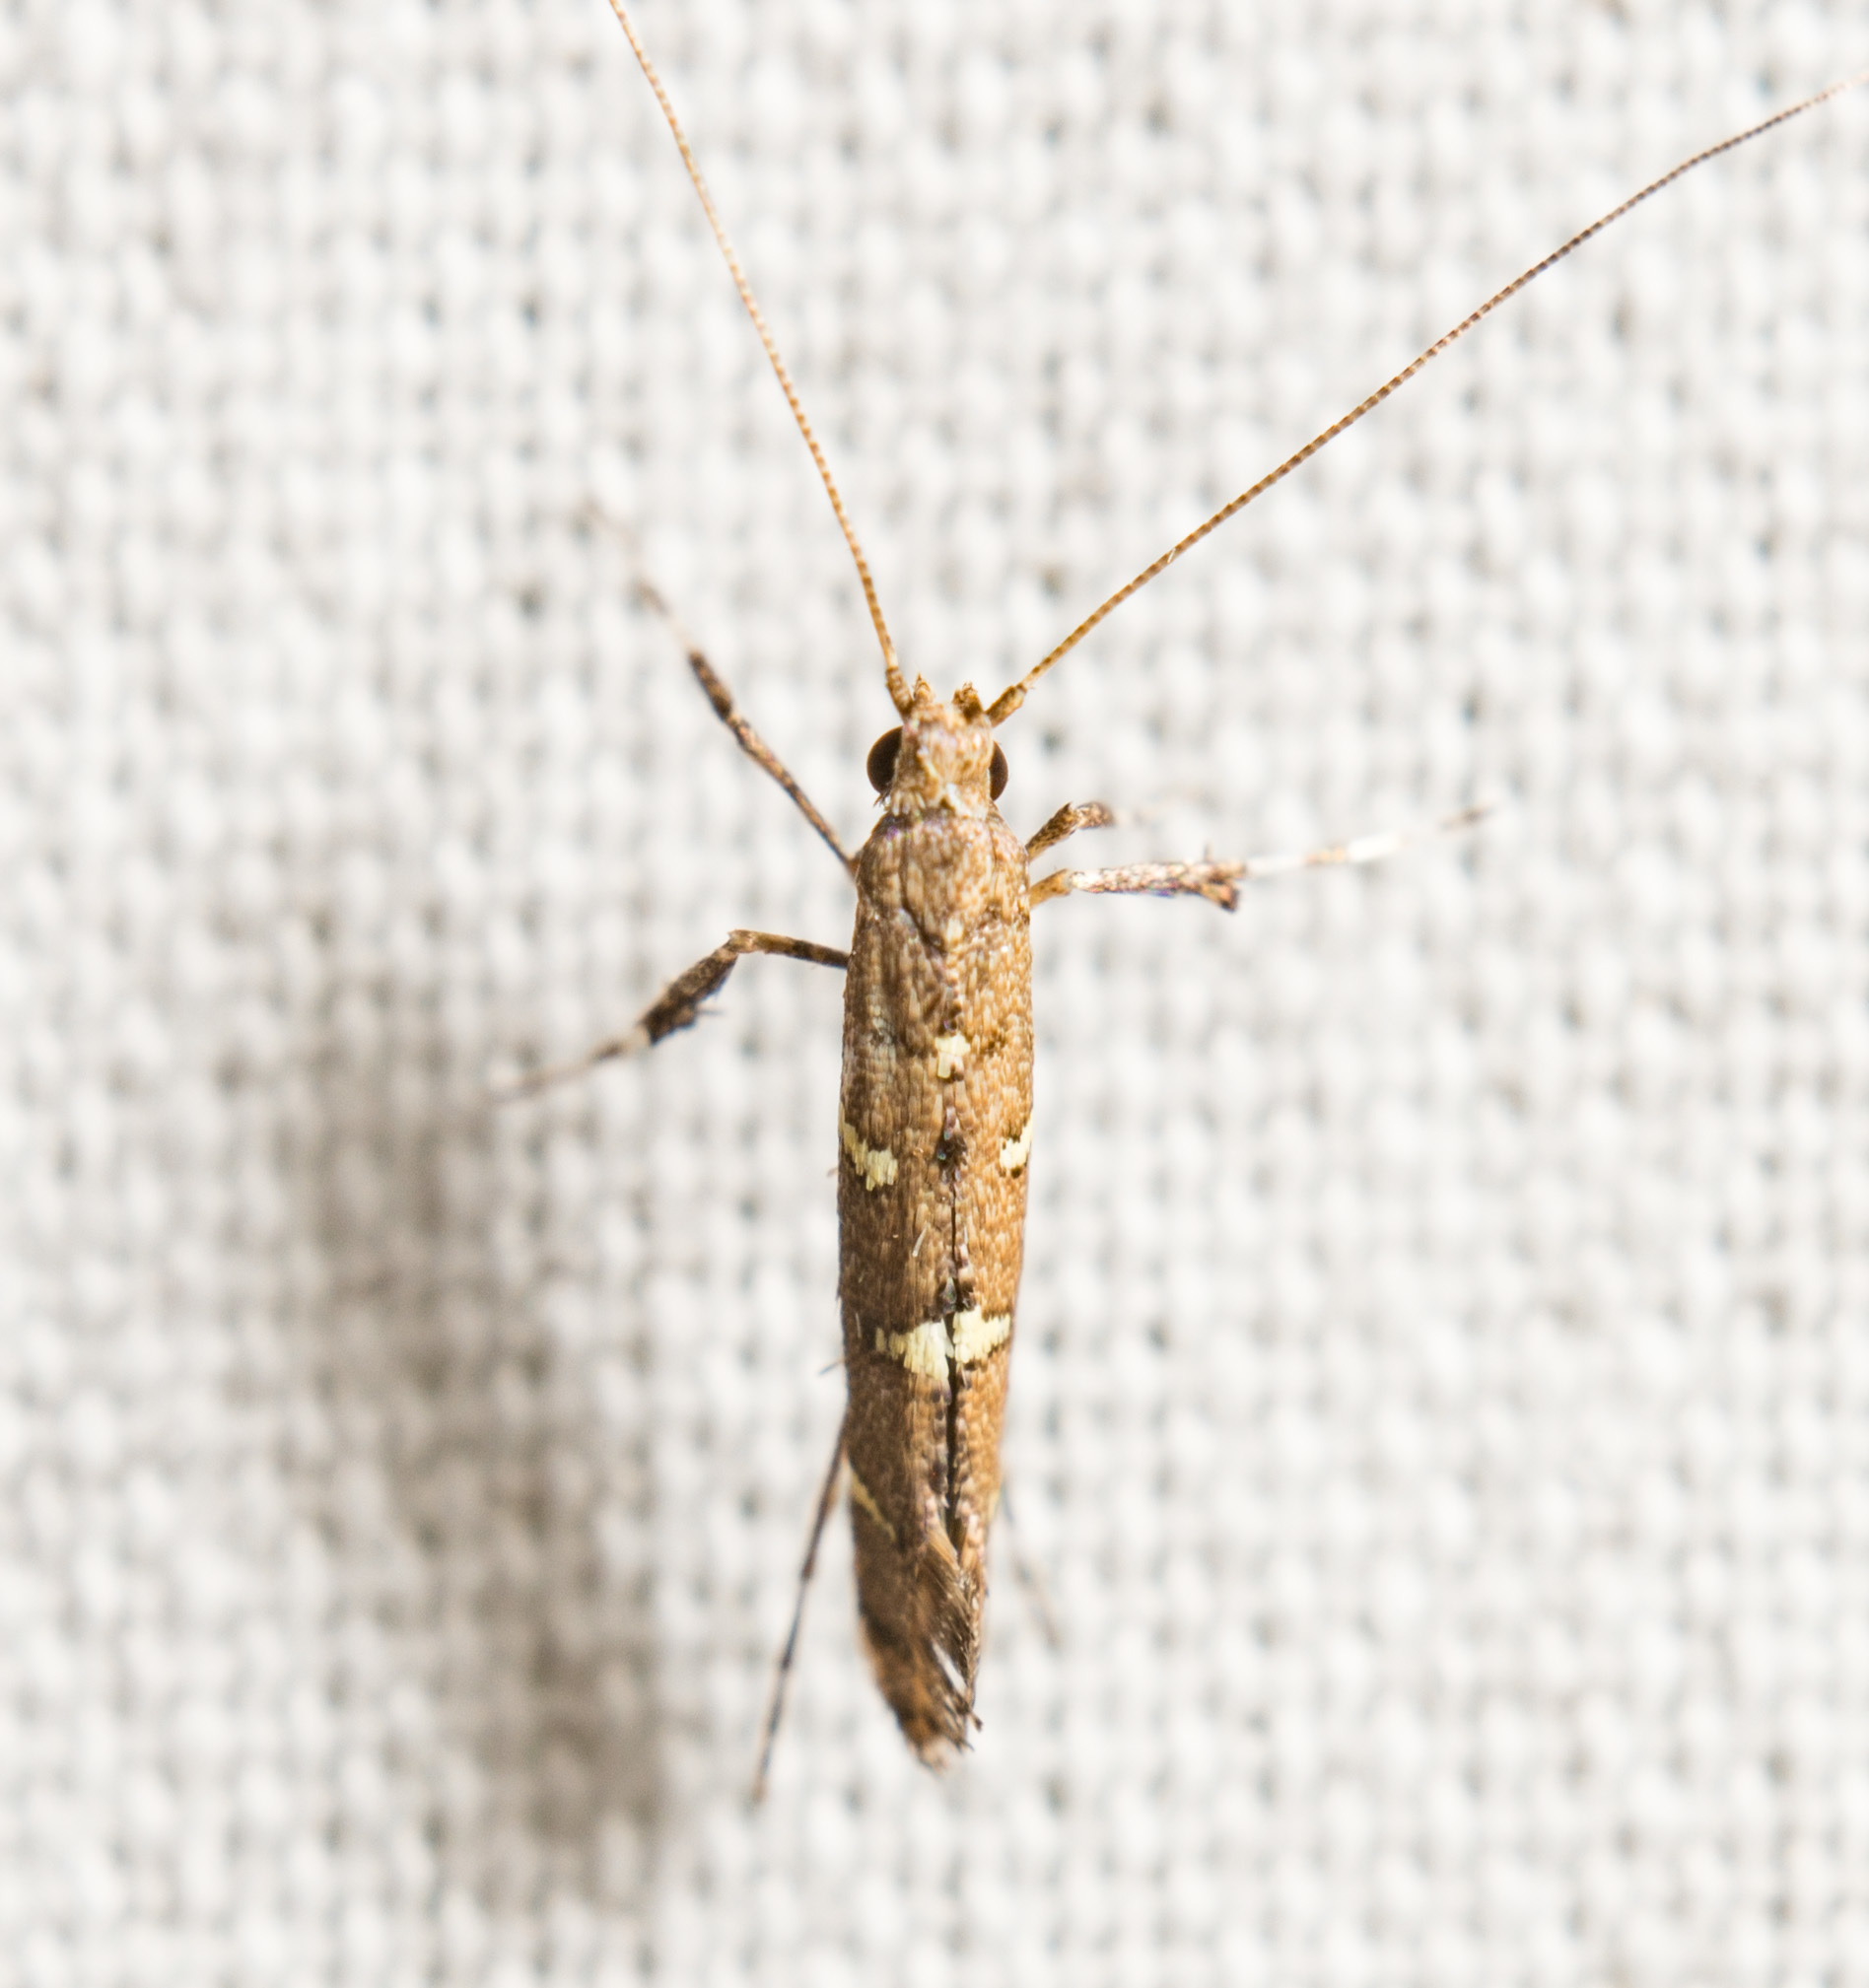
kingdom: Animalia
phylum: Arthropoda
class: Insecta
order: Lepidoptera
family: Gracillariidae
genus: Caloptilia
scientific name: Caloptilia triadicae
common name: Tallow leaf roller
